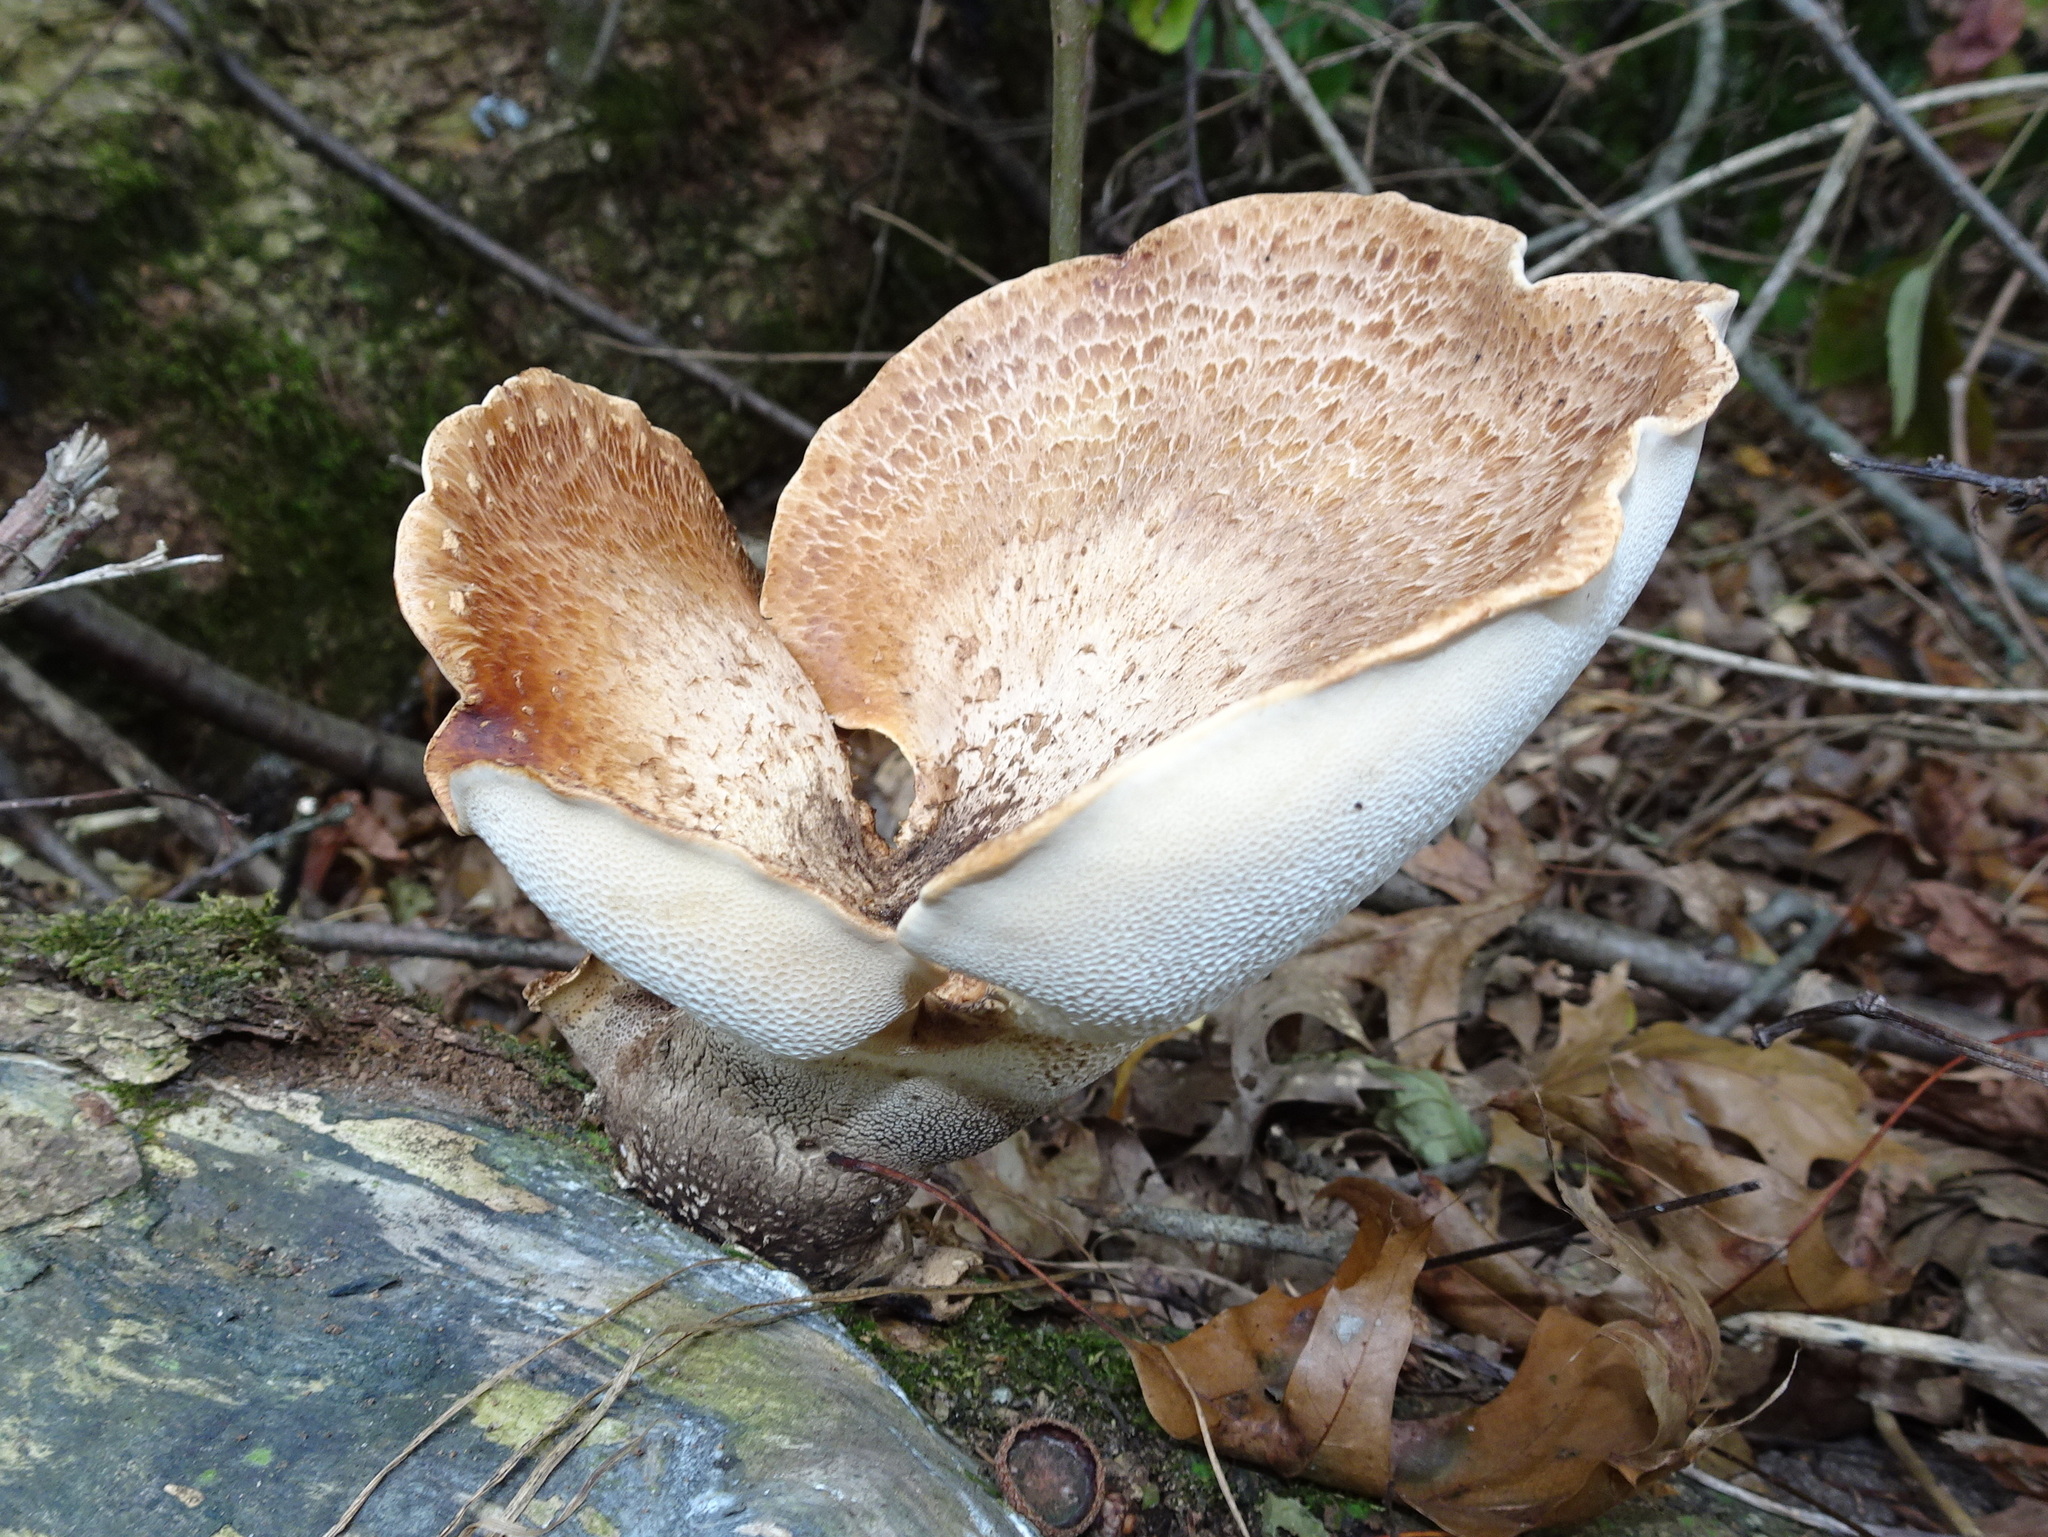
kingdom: Fungi
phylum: Basidiomycota
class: Agaricomycetes
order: Polyporales
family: Polyporaceae
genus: Cerioporus
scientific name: Cerioporus squamosus
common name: Dryad's saddle
